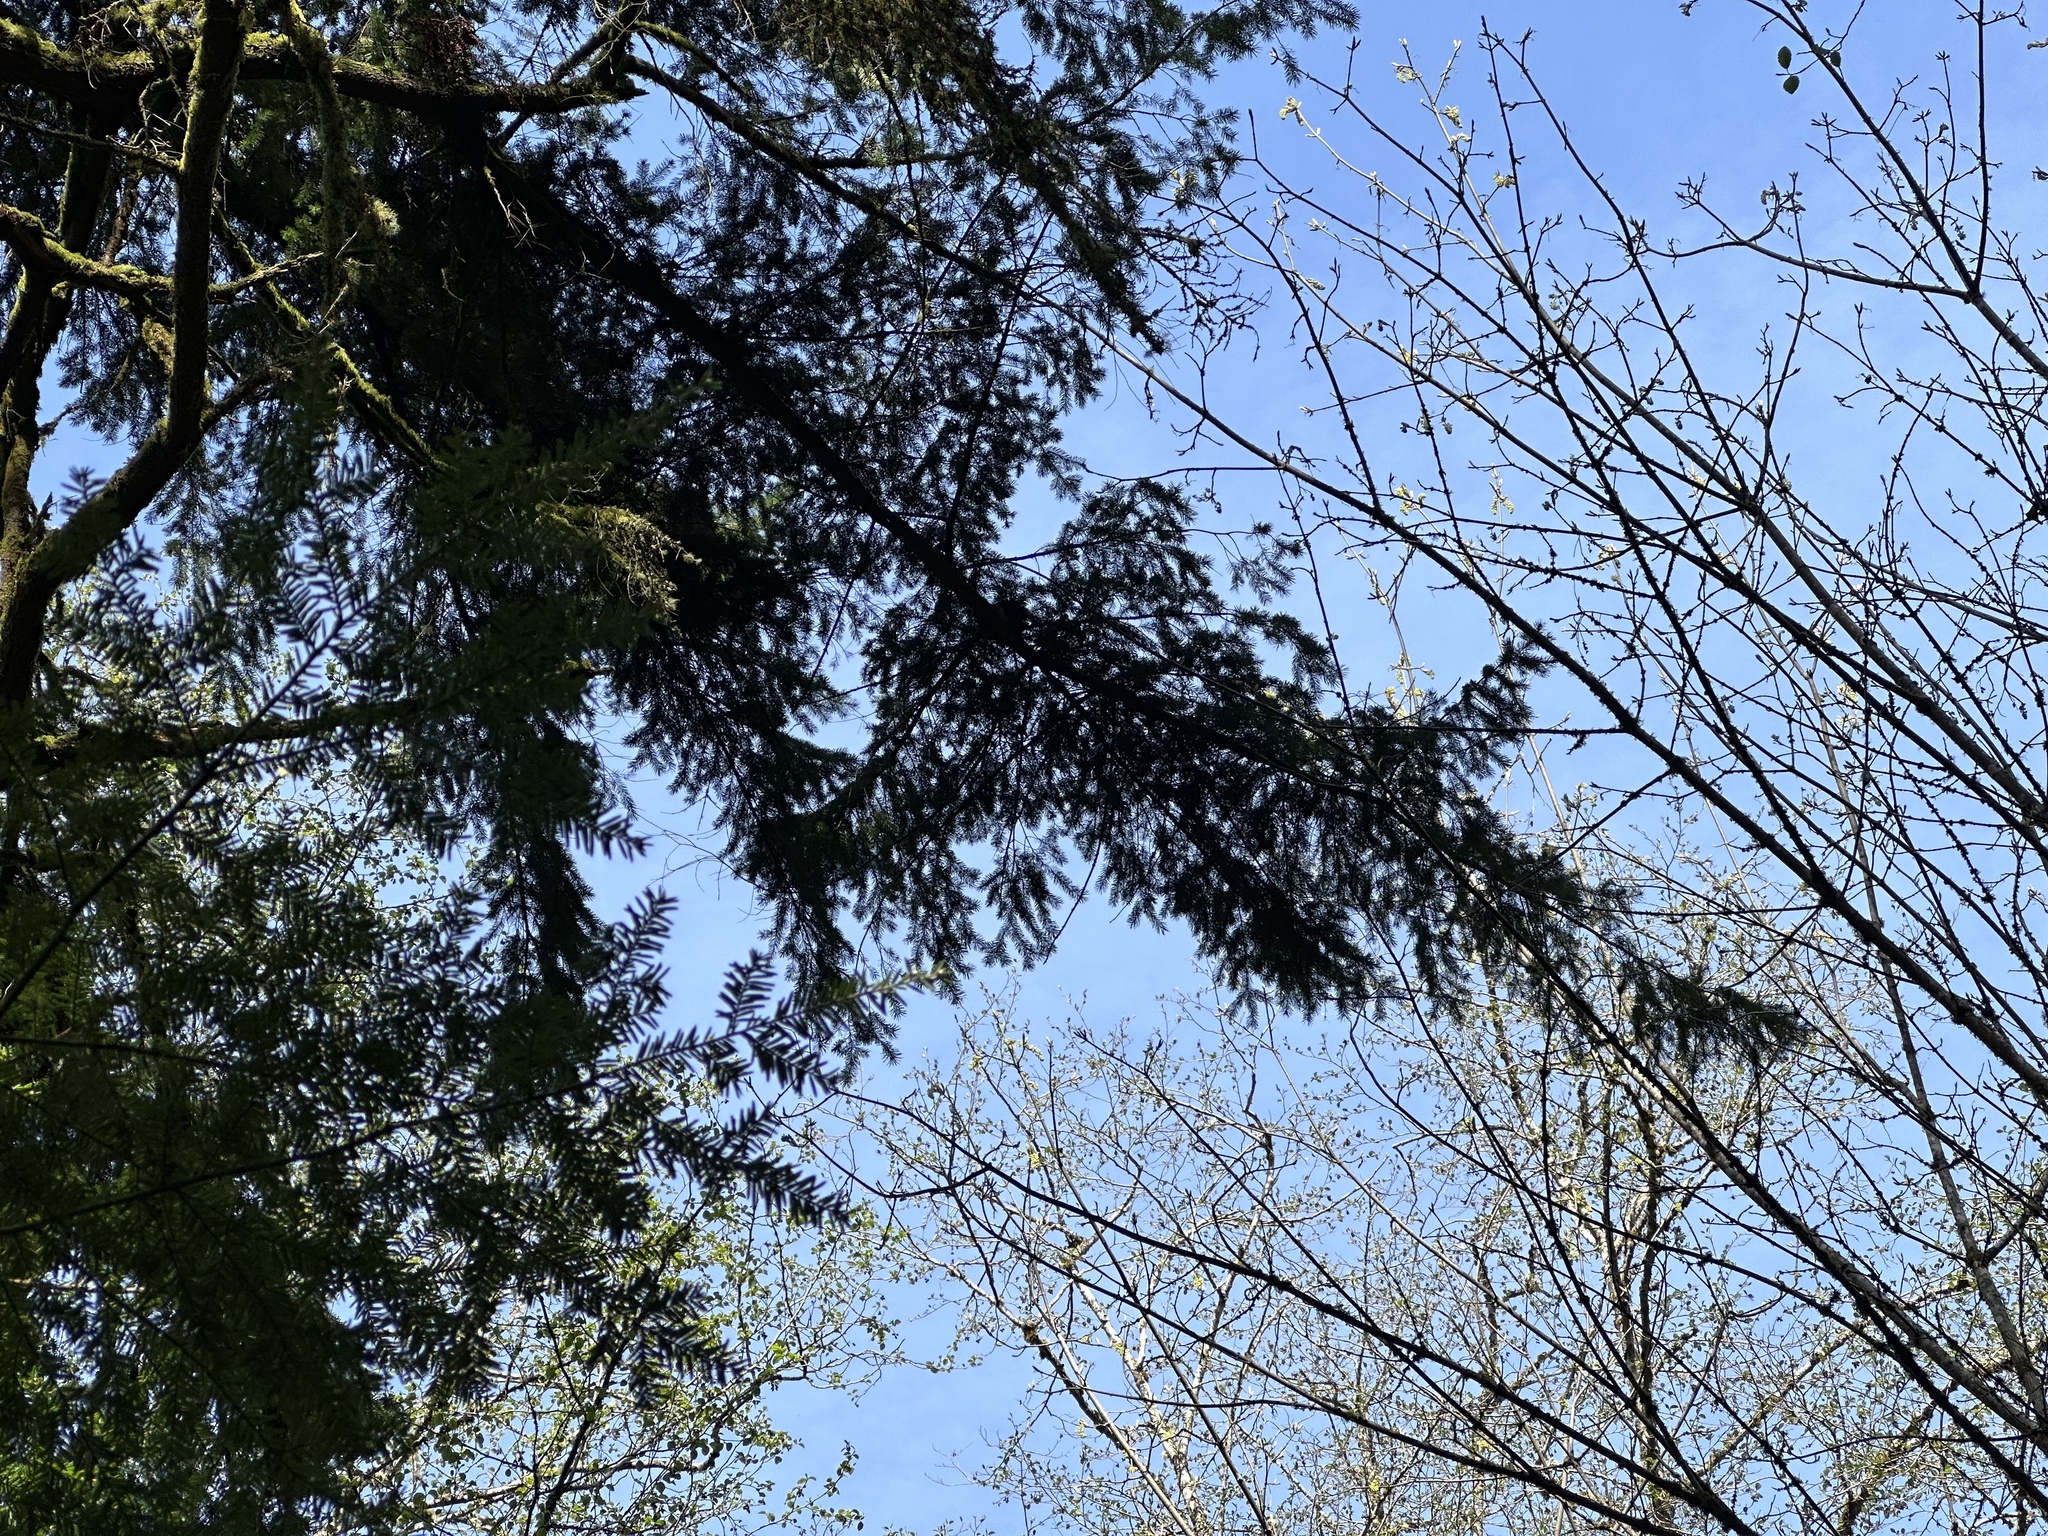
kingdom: Plantae
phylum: Tracheophyta
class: Pinopsida
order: Pinales
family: Pinaceae
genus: Pseudotsuga
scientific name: Pseudotsuga menziesii
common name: Douglas fir
